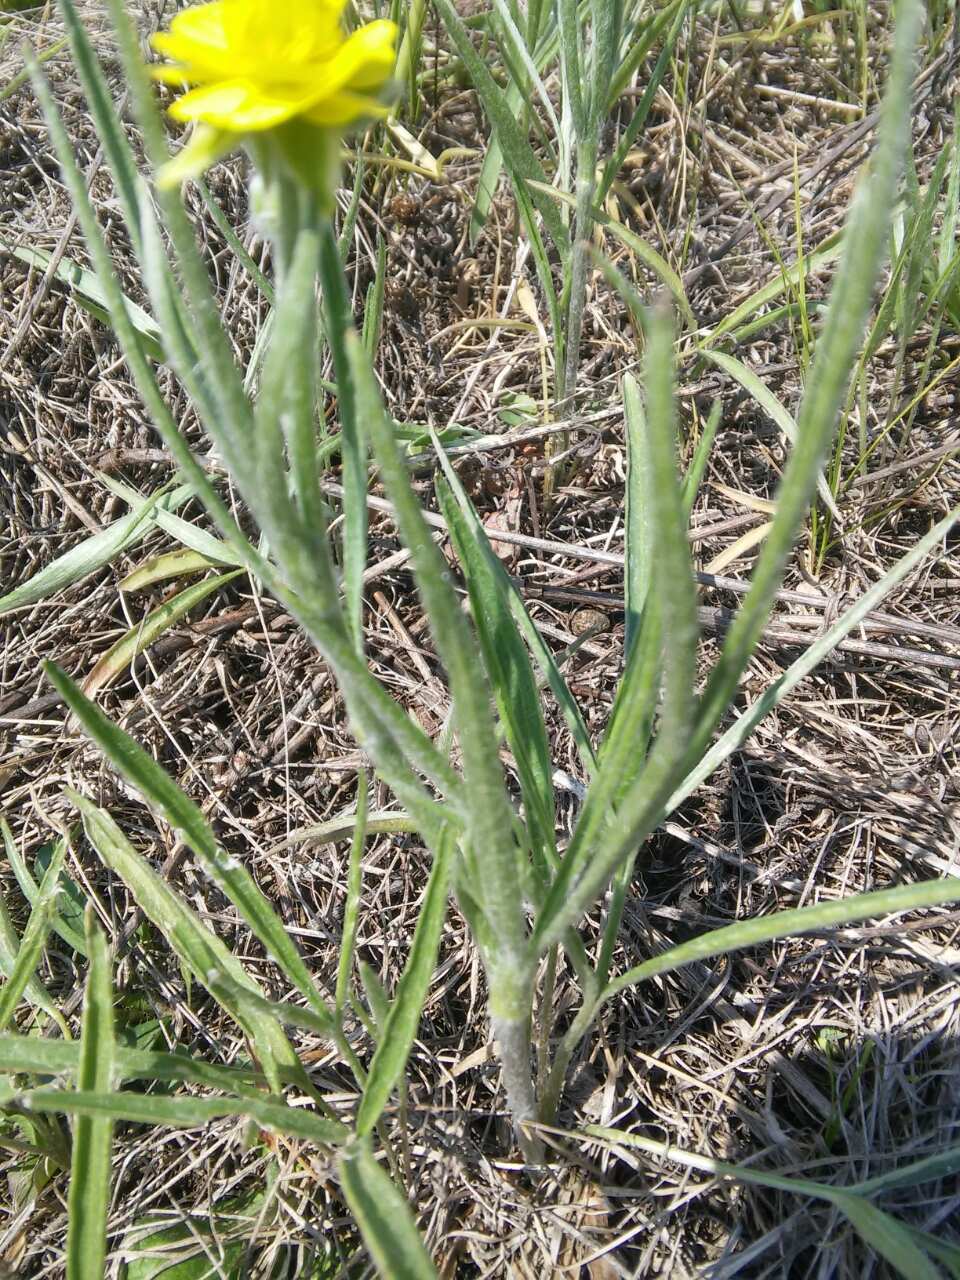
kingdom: Plantae
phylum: Tracheophyta
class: Magnoliopsida
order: Ranunculales
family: Ranunculaceae
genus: Ranunculus
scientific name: Ranunculus illyricus
